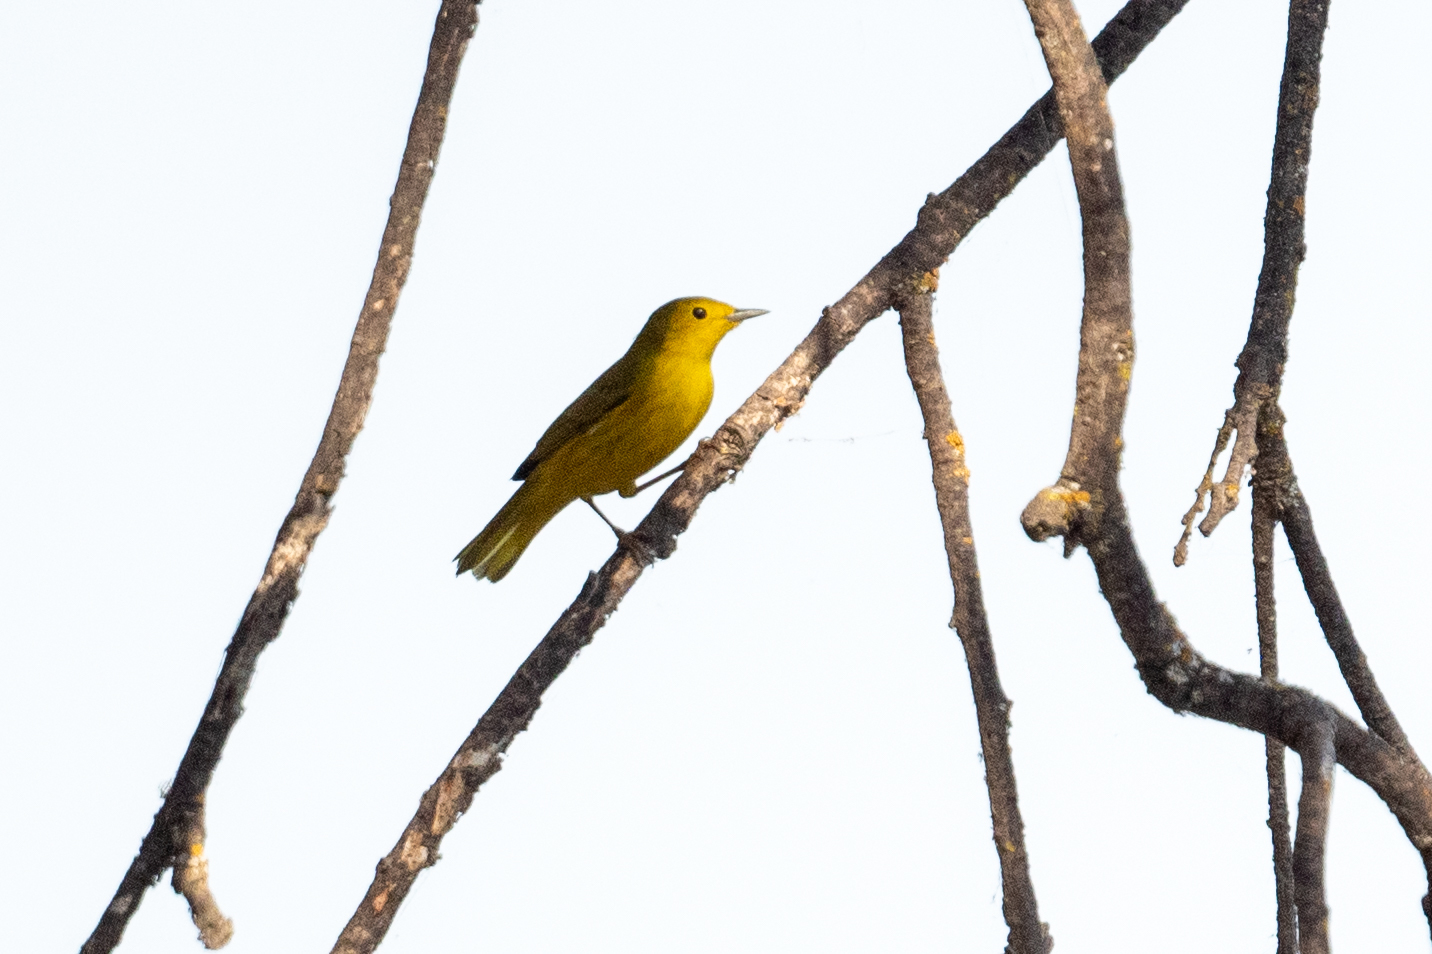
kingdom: Animalia
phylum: Chordata
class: Aves
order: Passeriformes
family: Parulidae
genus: Setophaga
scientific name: Setophaga petechia
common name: Yellow warbler
